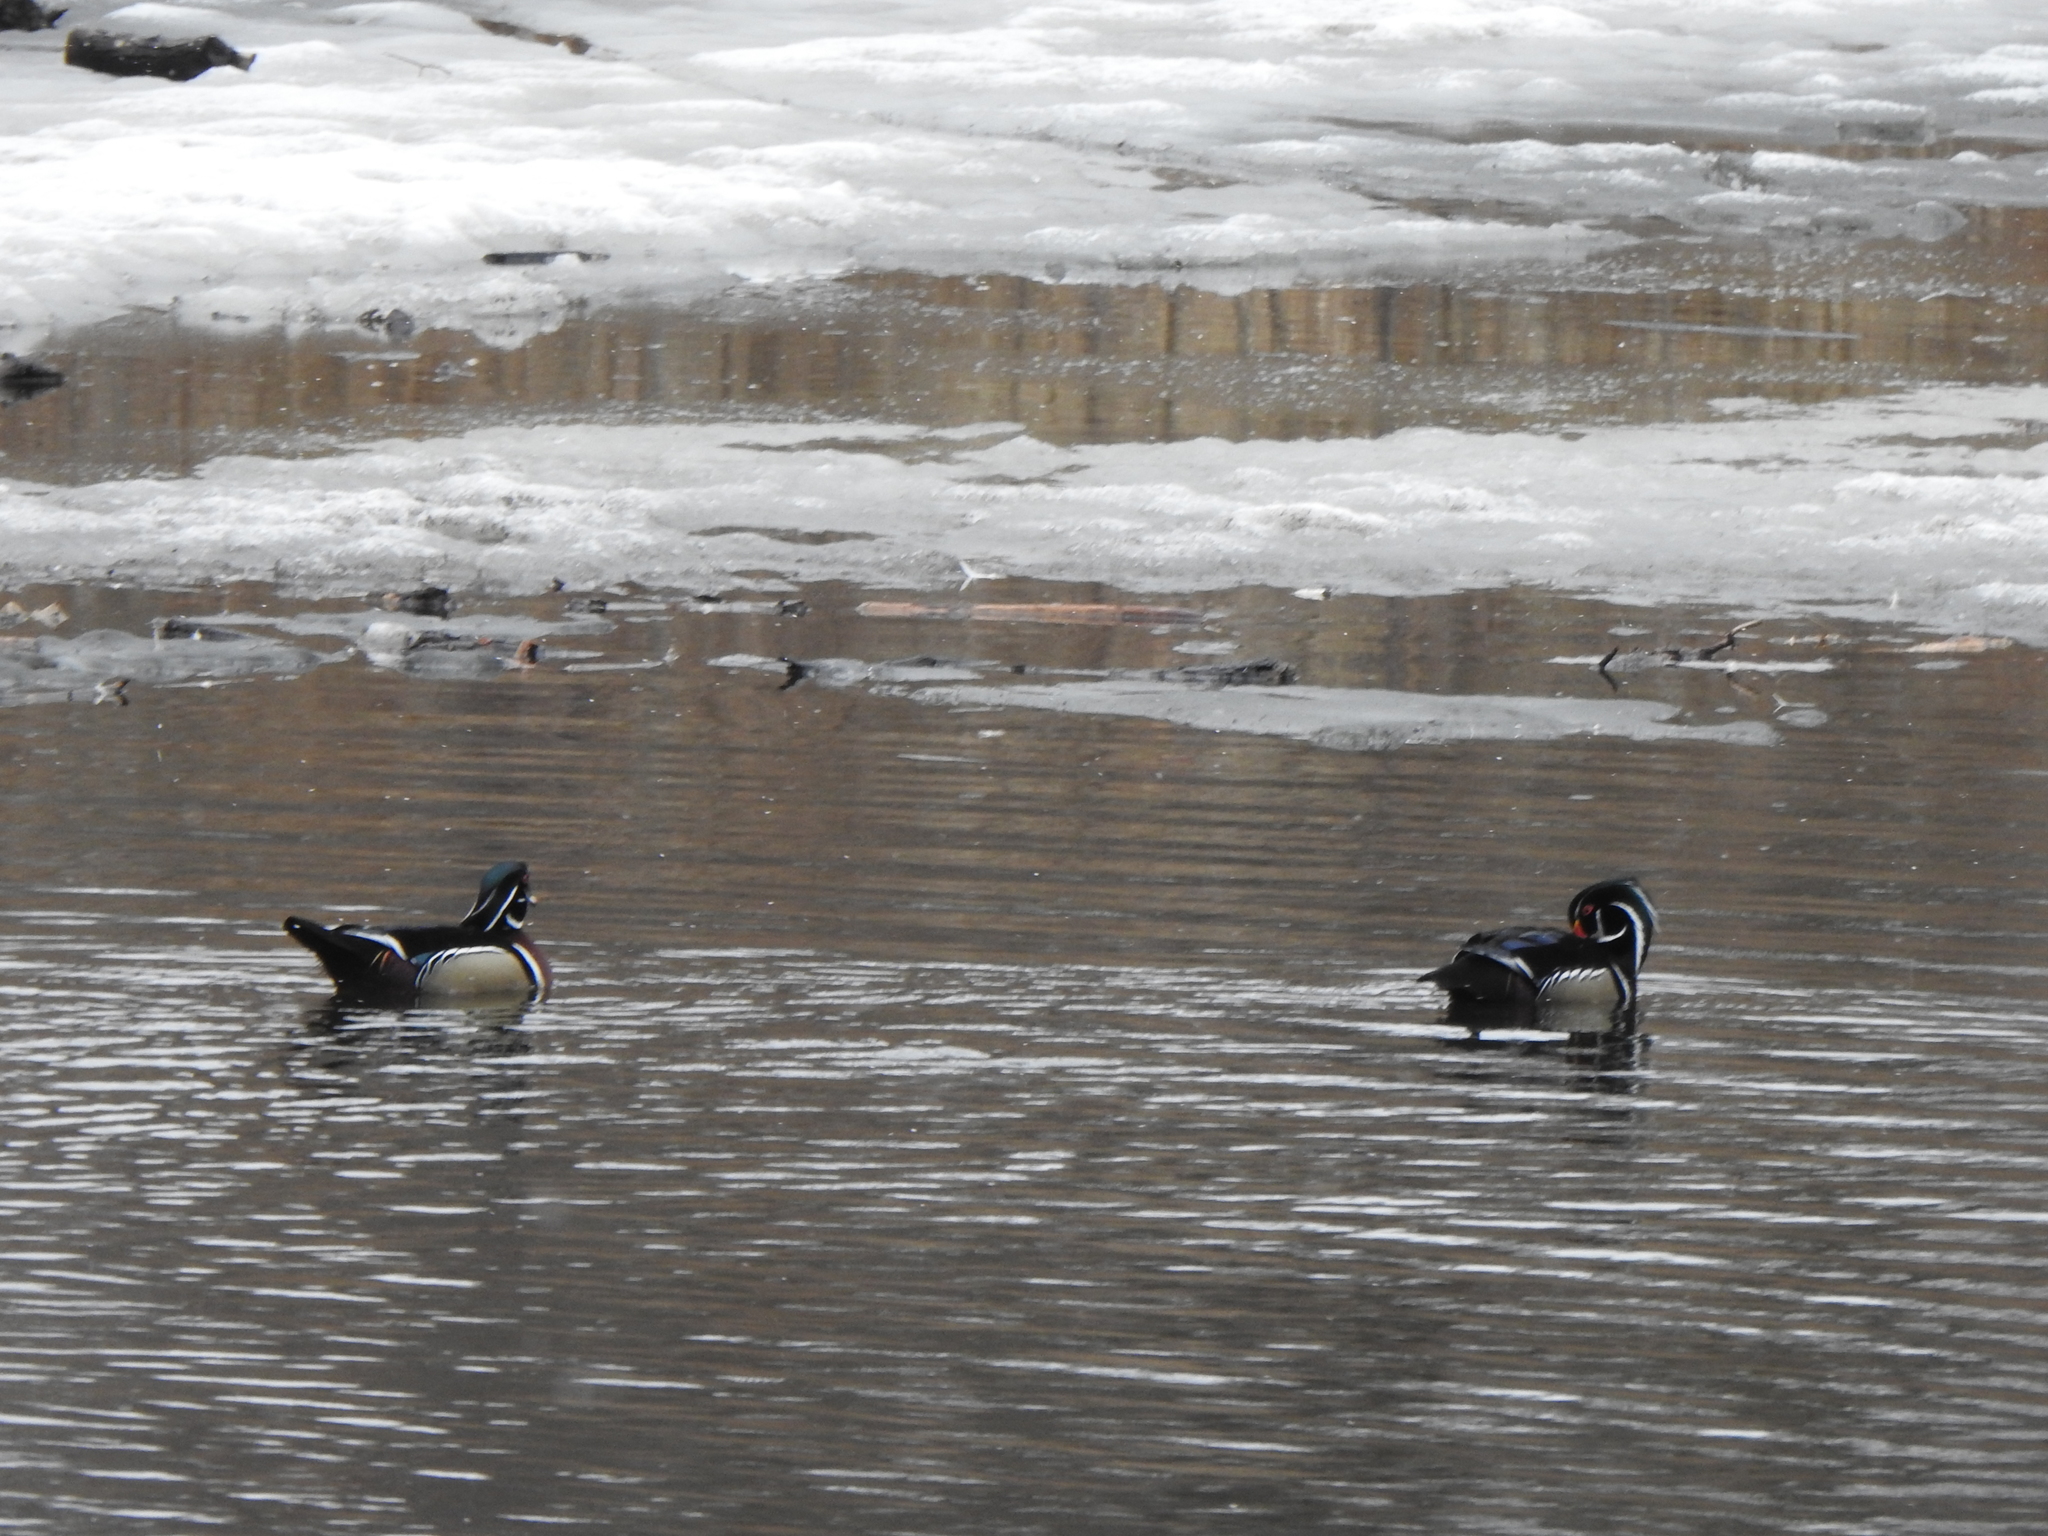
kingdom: Animalia
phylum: Chordata
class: Aves
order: Anseriformes
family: Anatidae
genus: Aix
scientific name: Aix sponsa
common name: Wood duck
